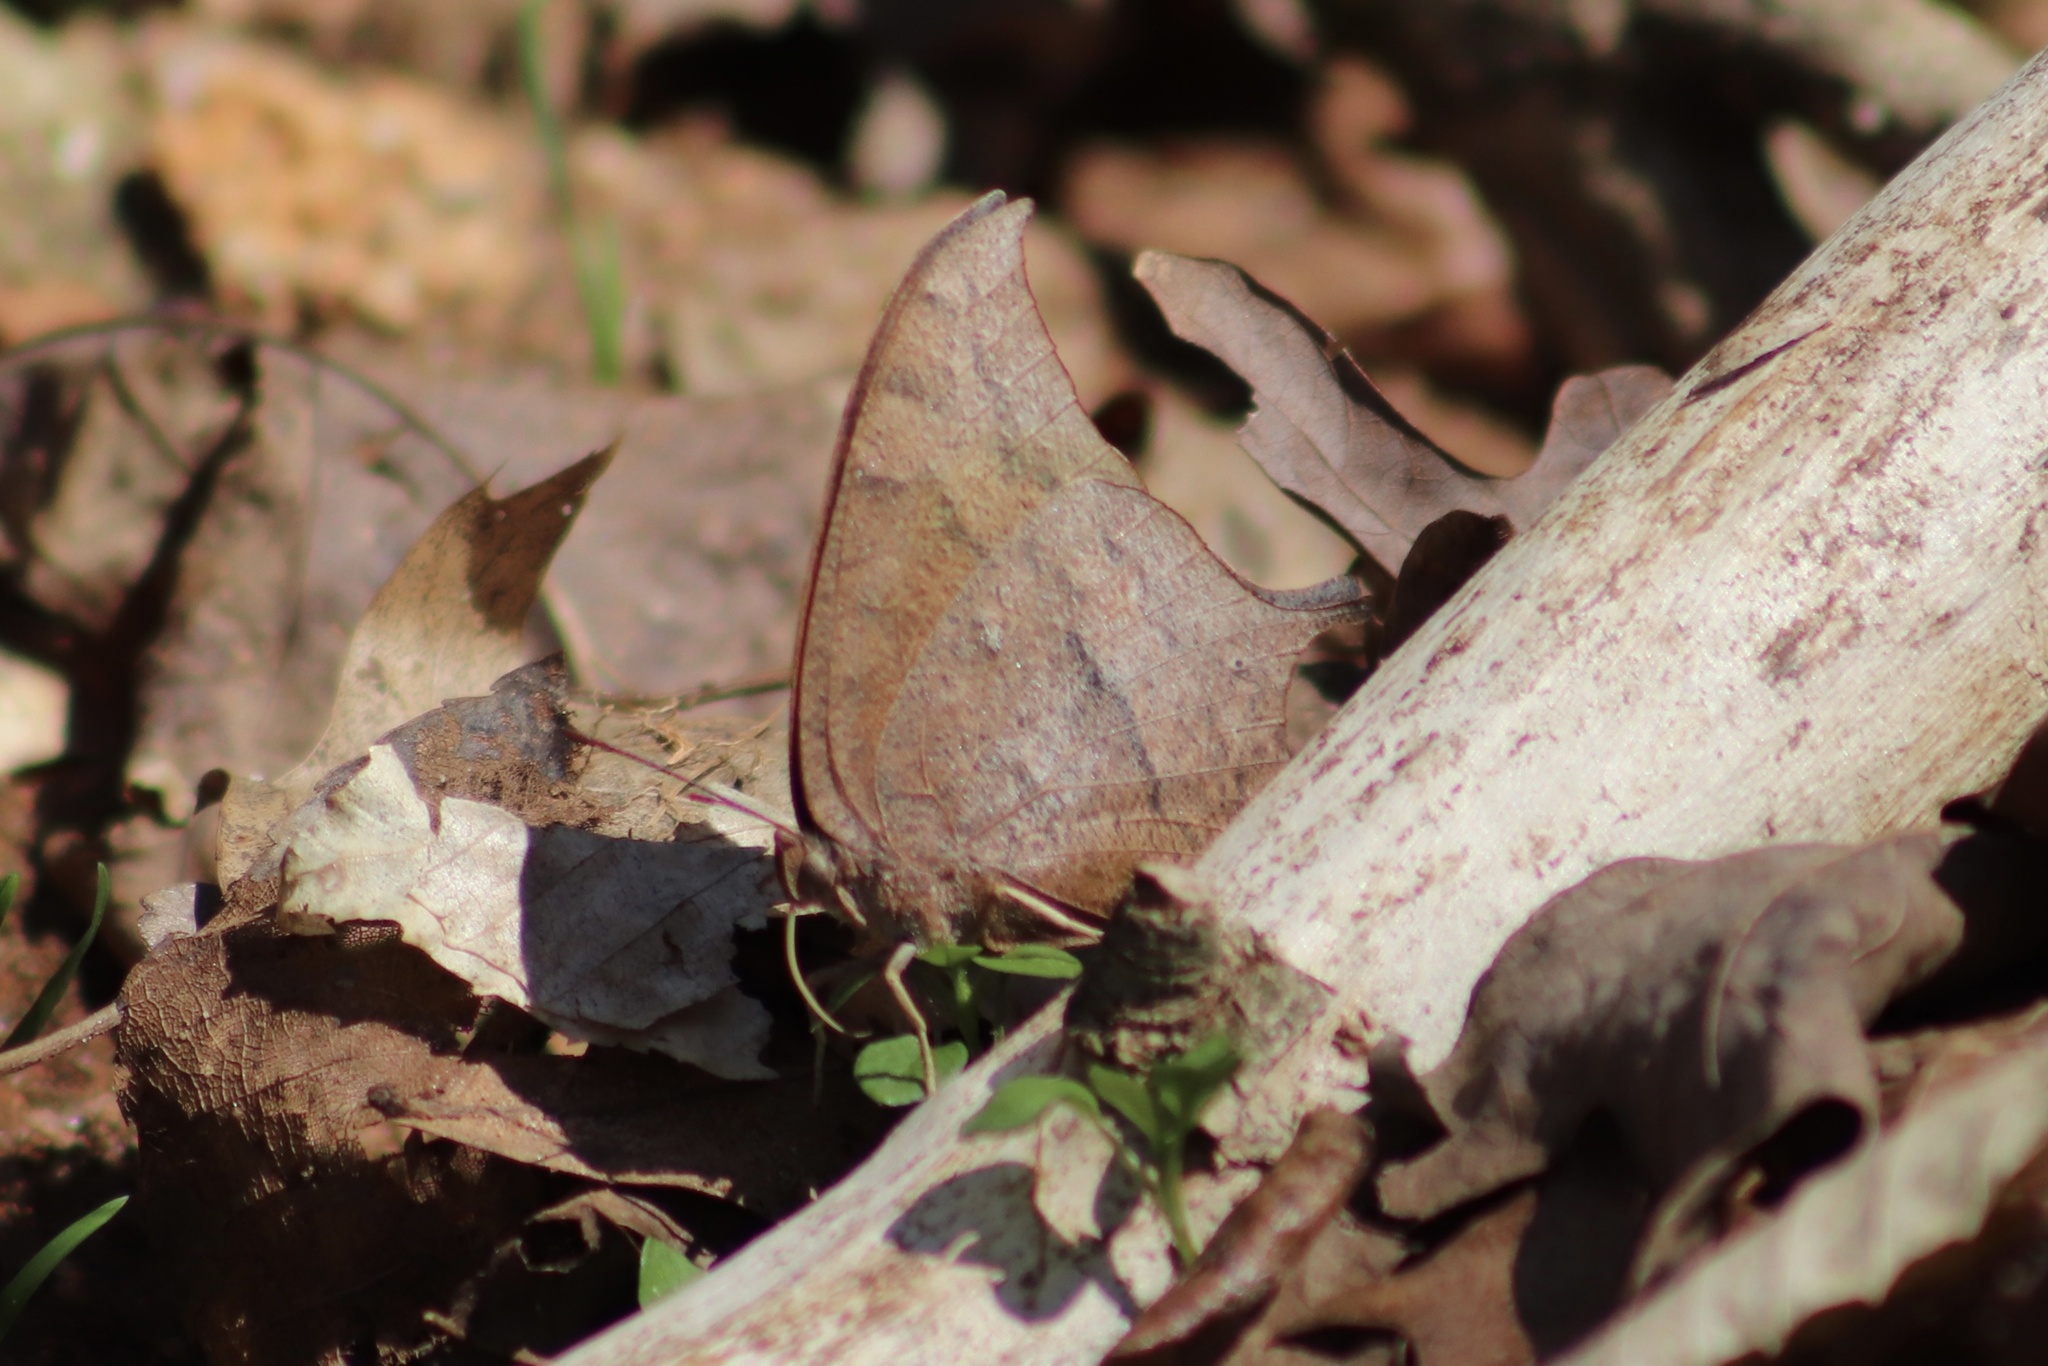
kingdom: Animalia
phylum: Arthropoda
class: Insecta
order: Lepidoptera
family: Nymphalidae
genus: Anaea
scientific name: Anaea andria
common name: Goatweed leafwing
